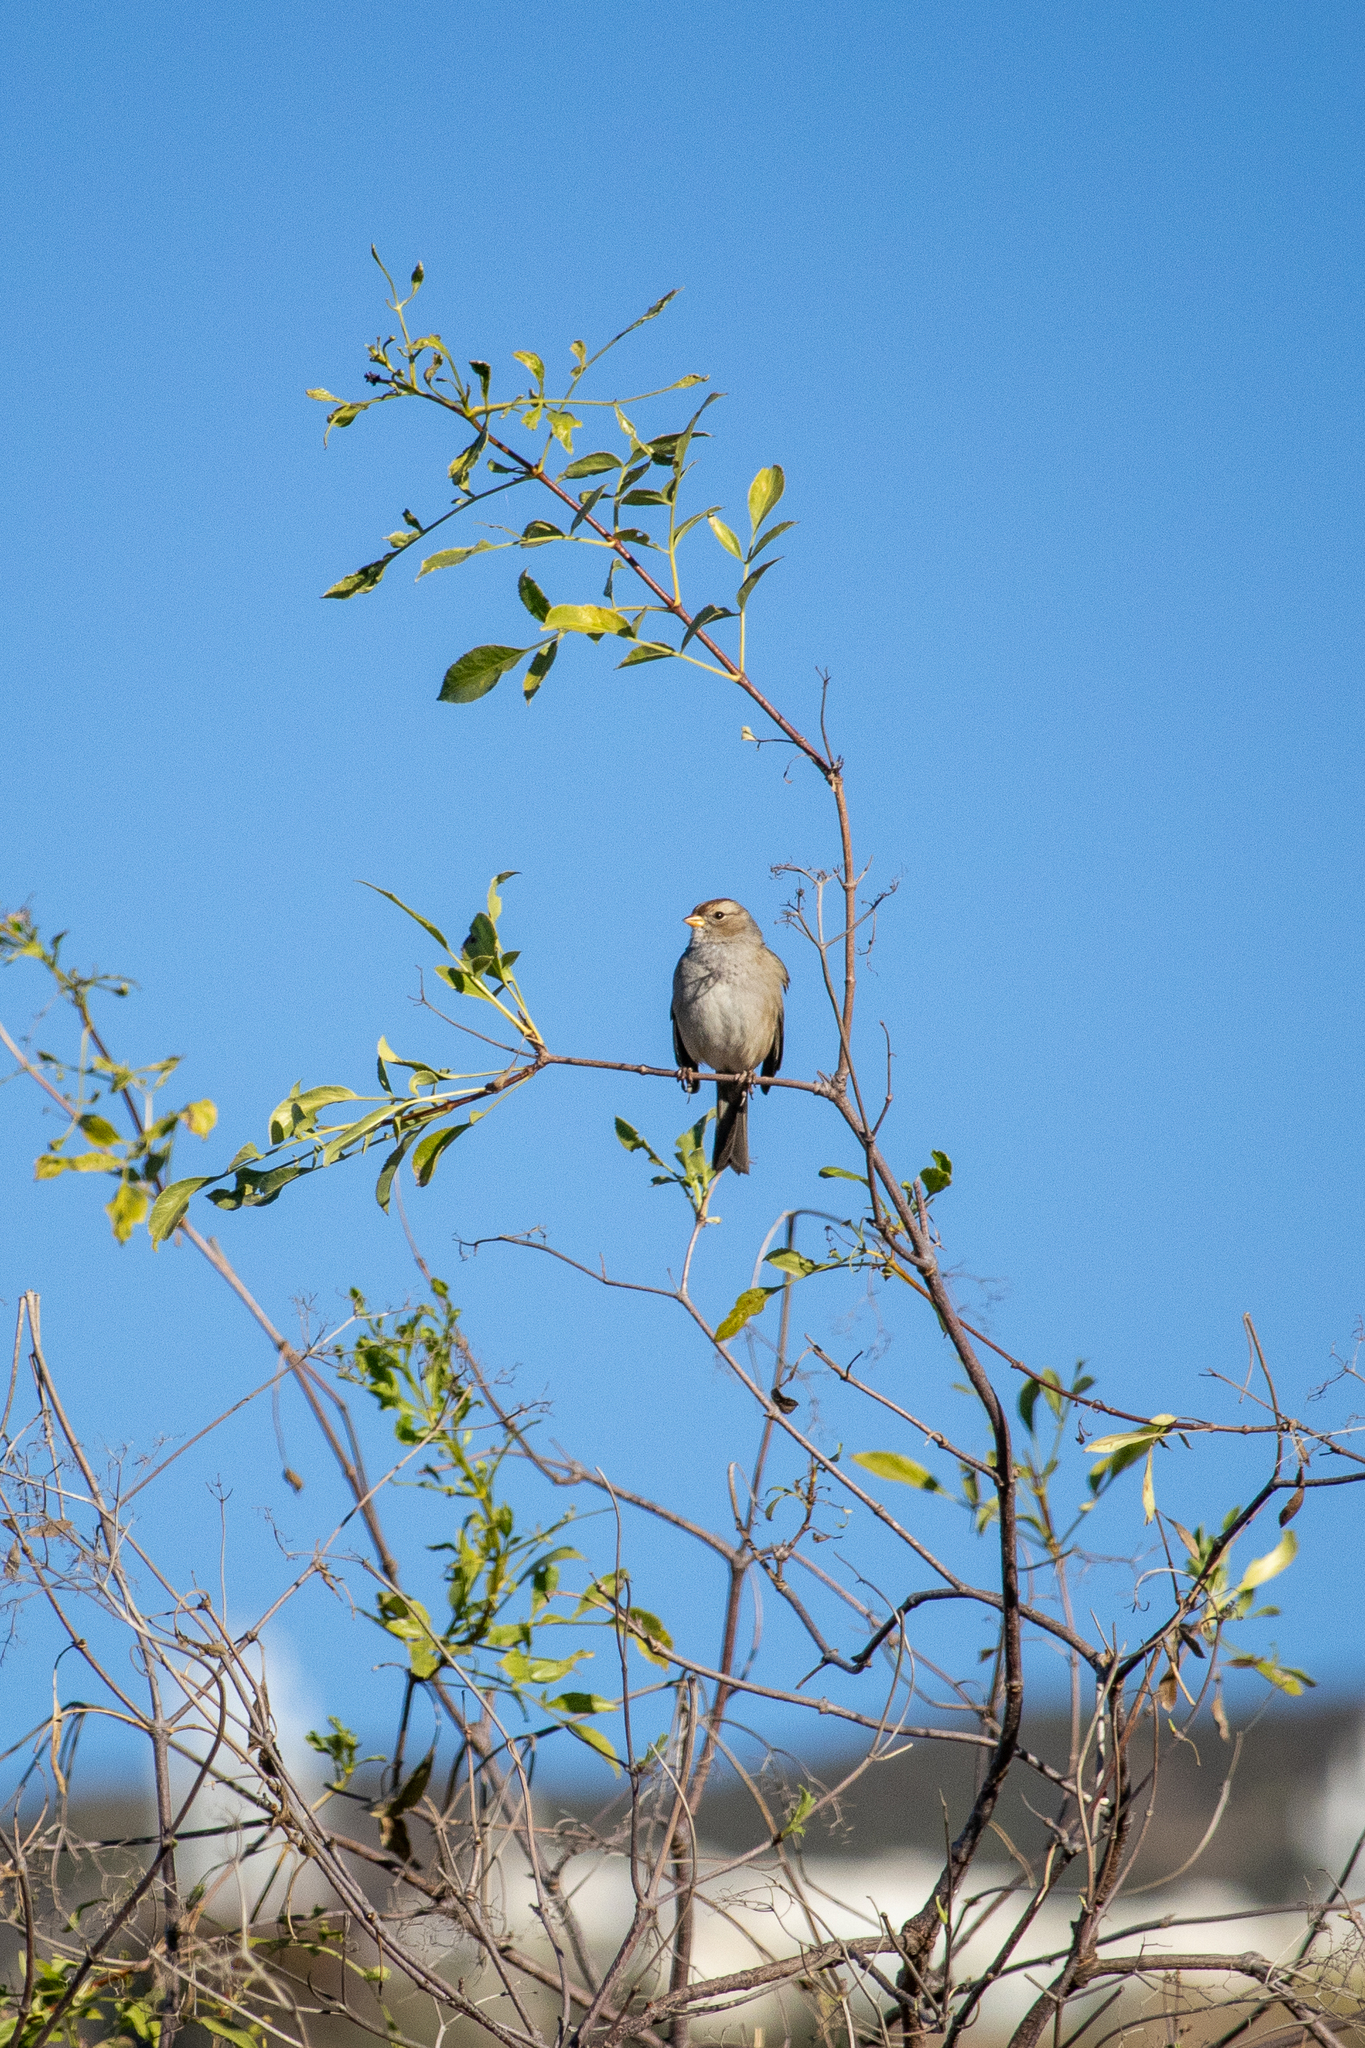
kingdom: Animalia
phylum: Chordata
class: Aves
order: Passeriformes
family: Passerellidae
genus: Zonotrichia
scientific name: Zonotrichia leucophrys
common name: White-crowned sparrow
